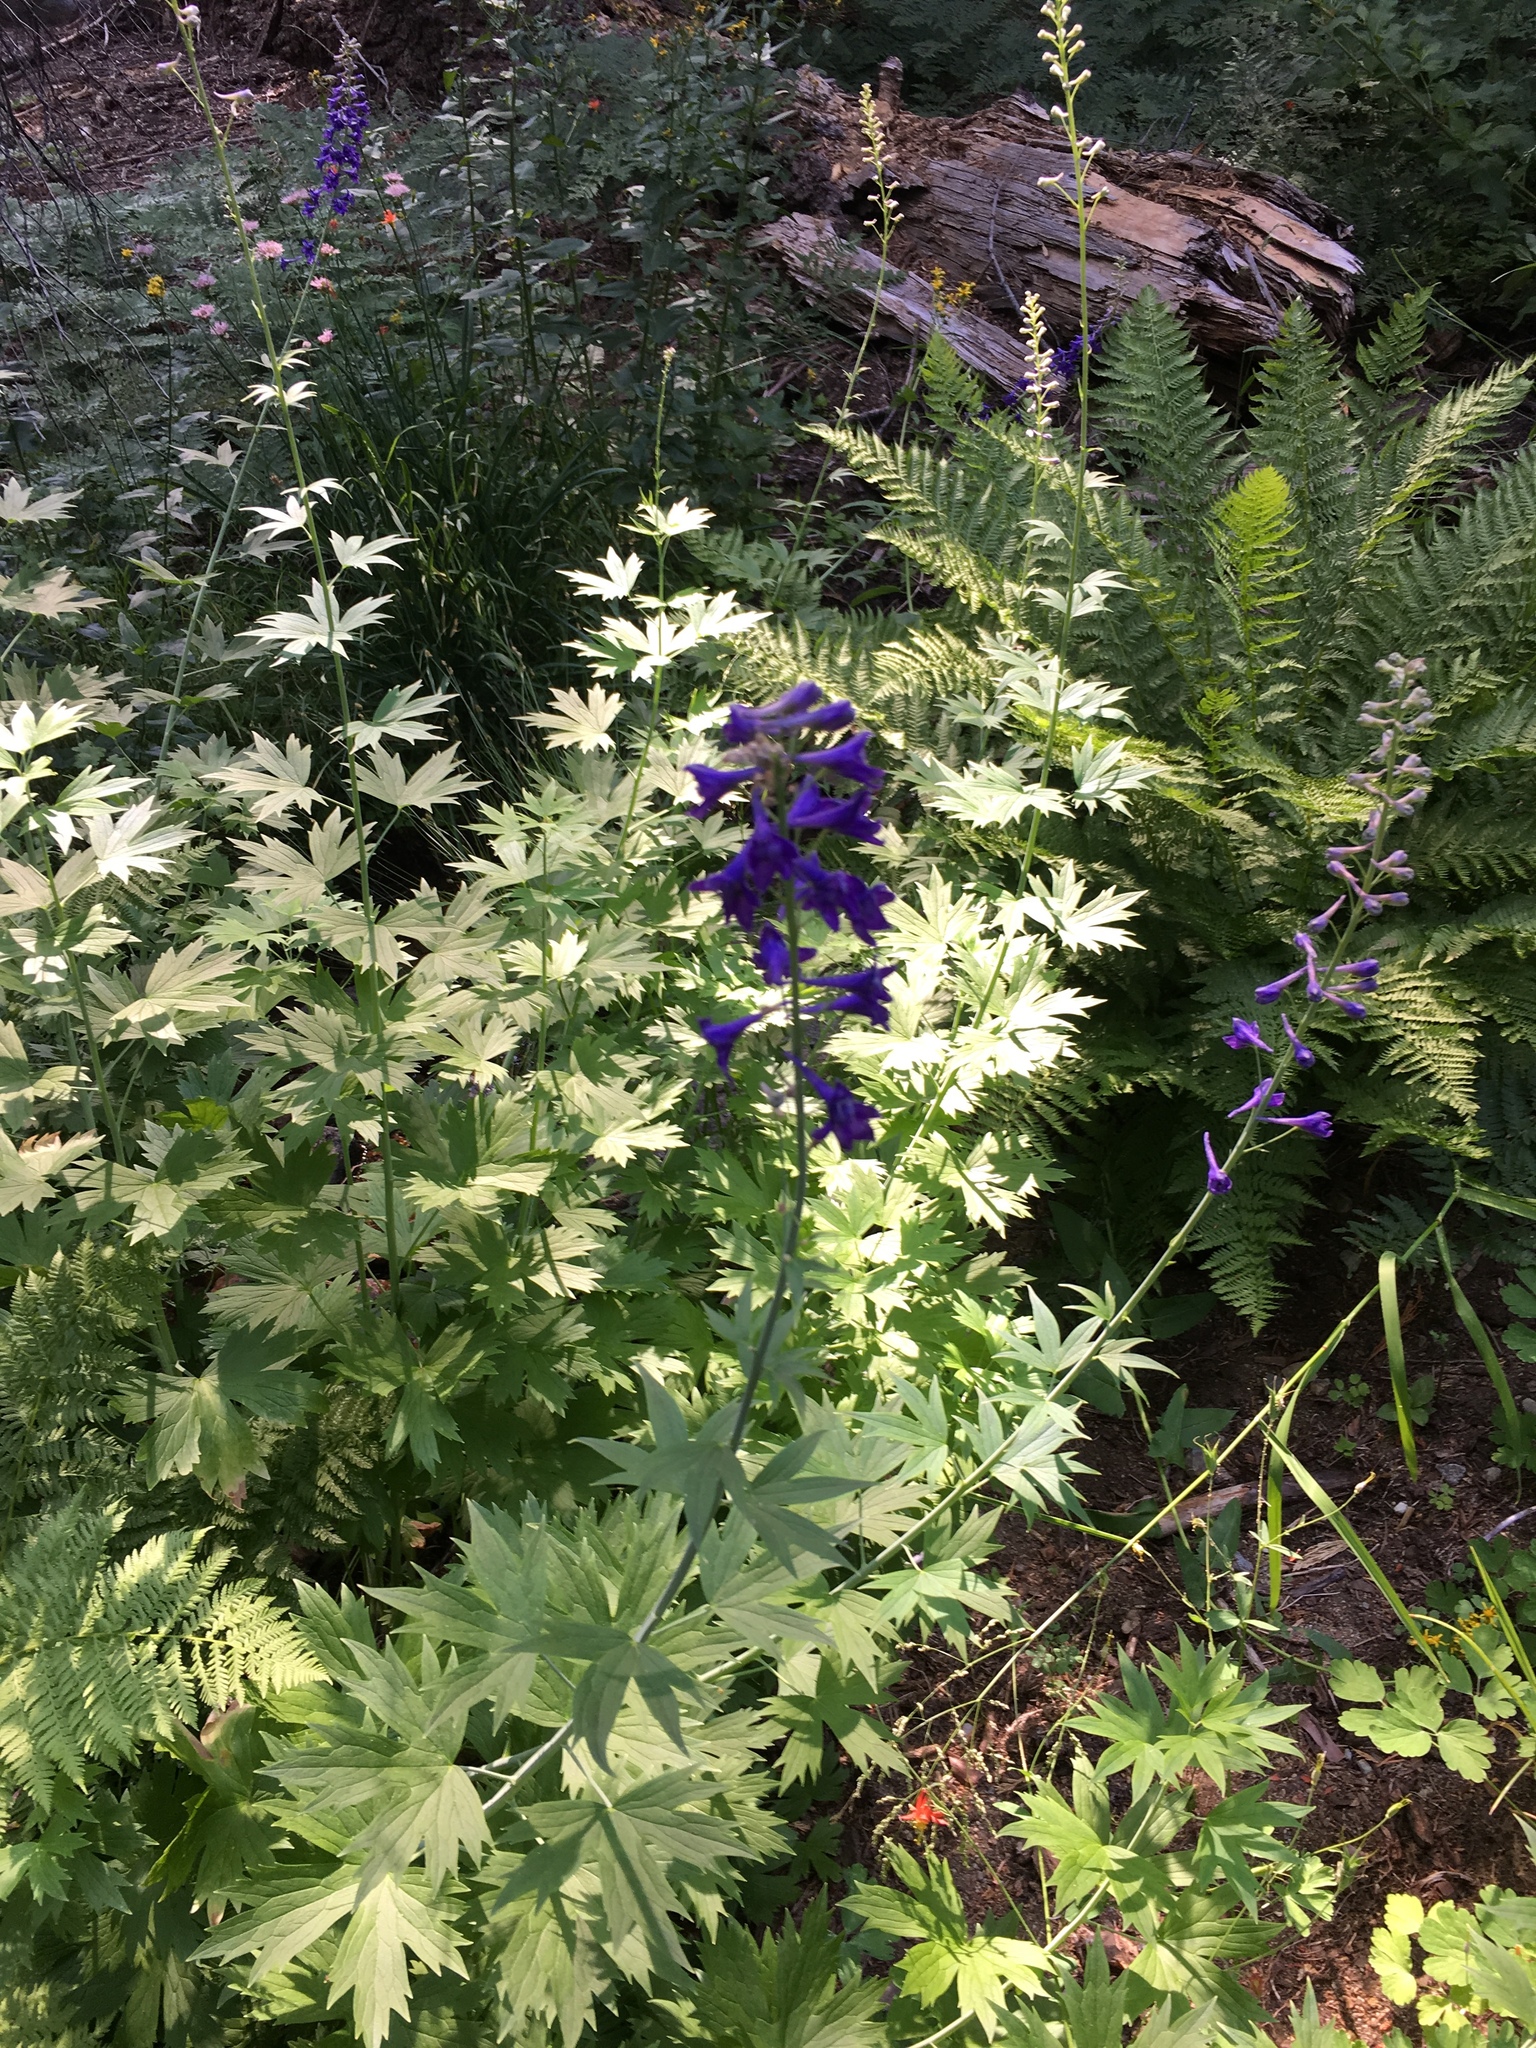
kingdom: Plantae
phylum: Tracheophyta
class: Magnoliopsida
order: Ranunculales
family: Ranunculaceae
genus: Delphinium
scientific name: Delphinium glaucum
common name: Brown's larkspur
